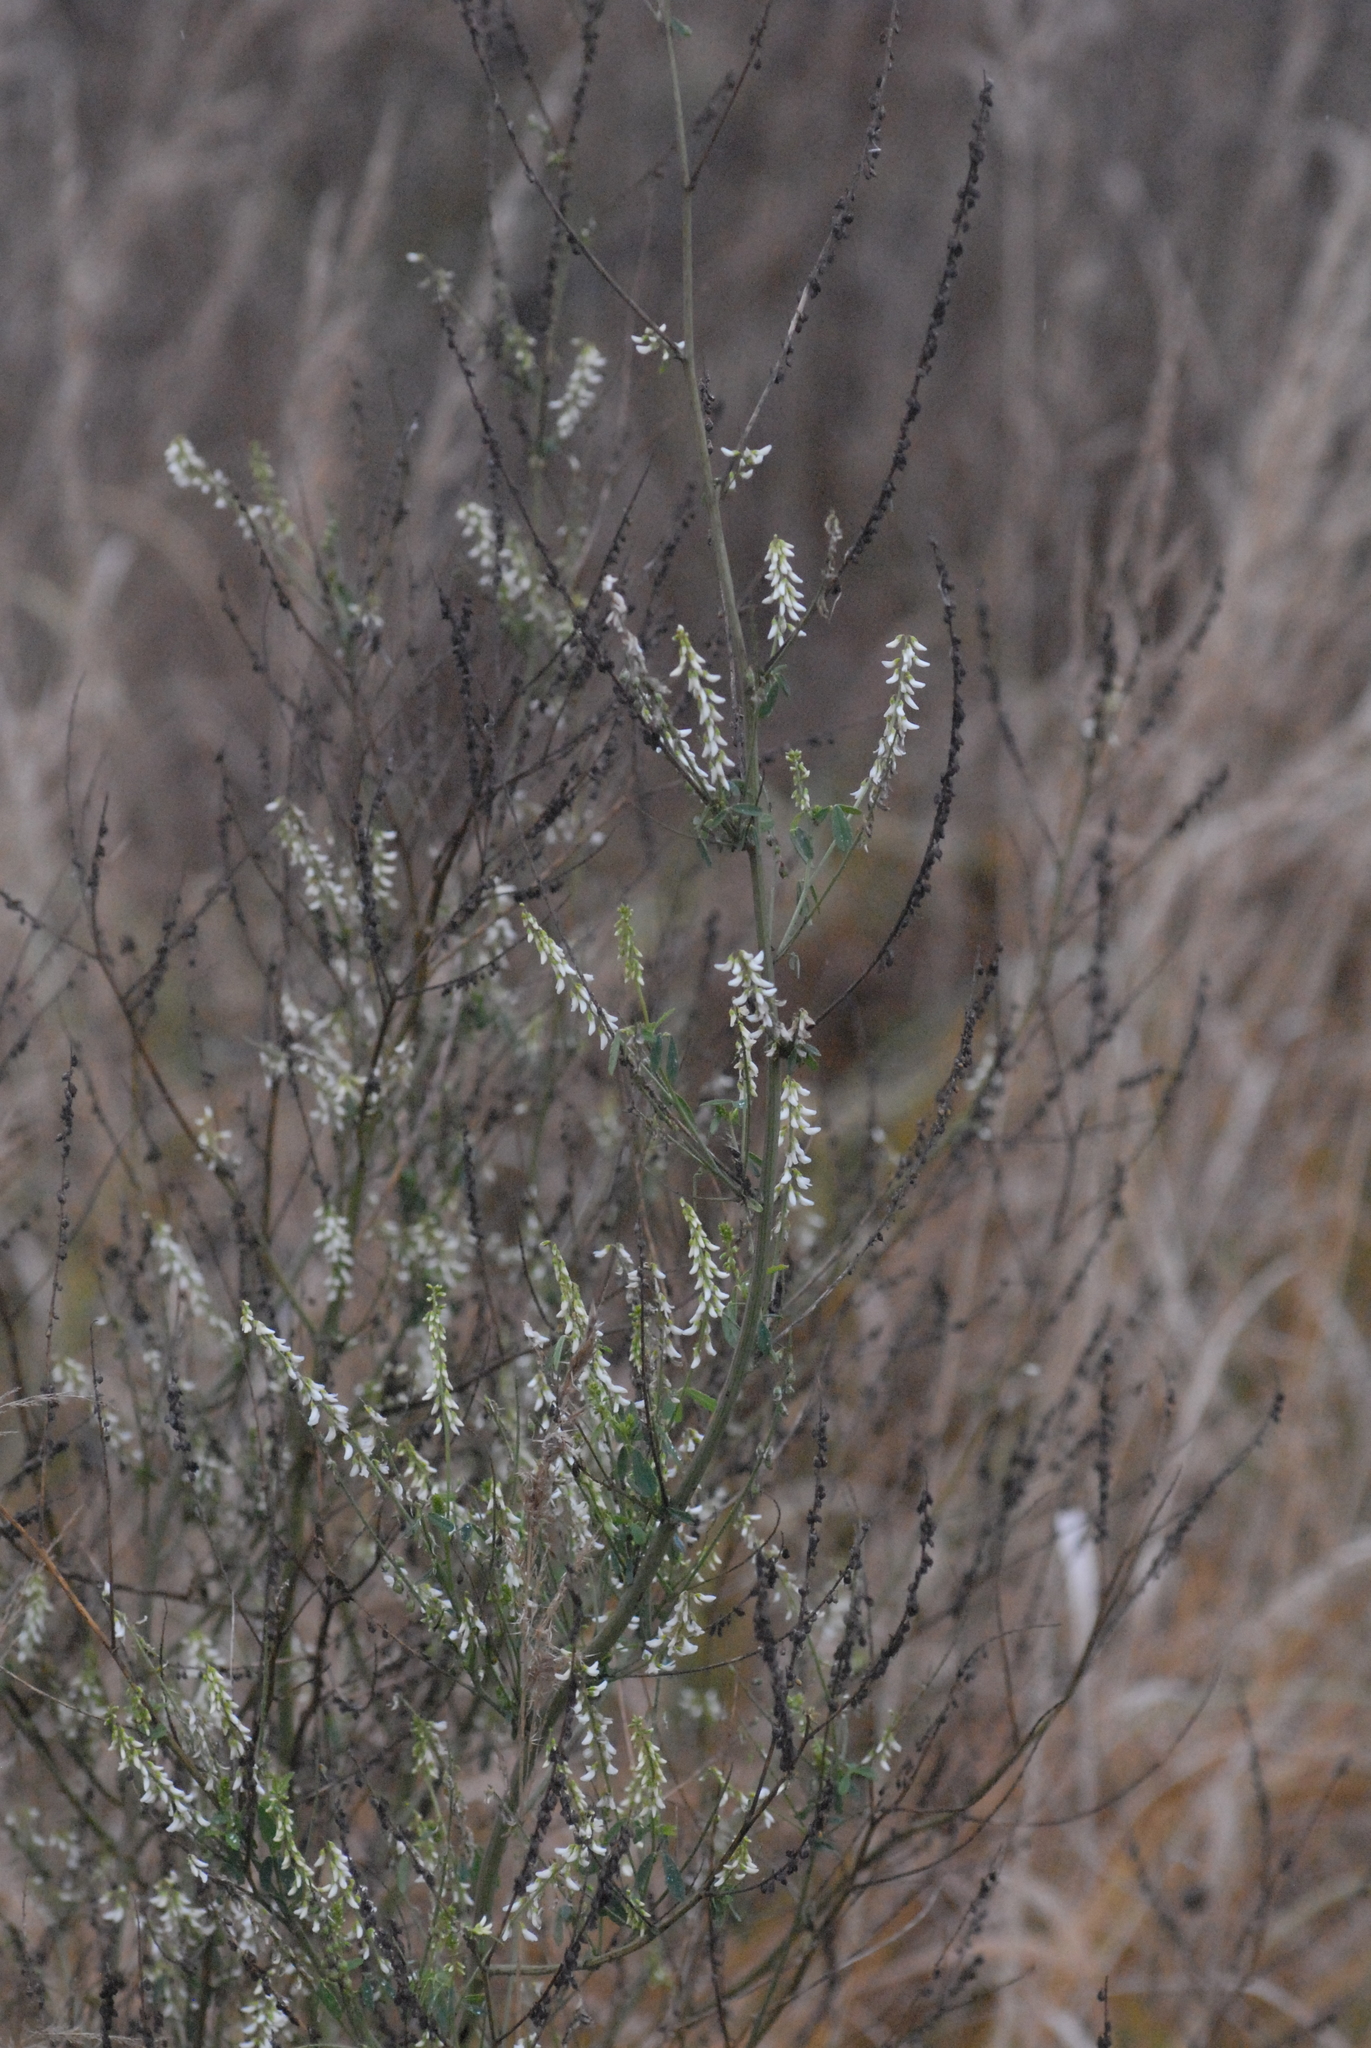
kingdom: Plantae
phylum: Tracheophyta
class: Magnoliopsida
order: Fabales
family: Fabaceae
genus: Melilotus
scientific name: Melilotus albus
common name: White melilot
